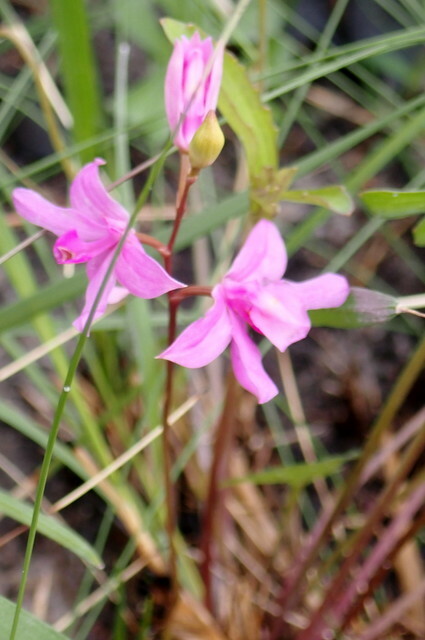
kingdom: Plantae
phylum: Tracheophyta
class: Liliopsida
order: Asparagales
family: Orchidaceae
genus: Calopogon
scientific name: Calopogon barbatus
